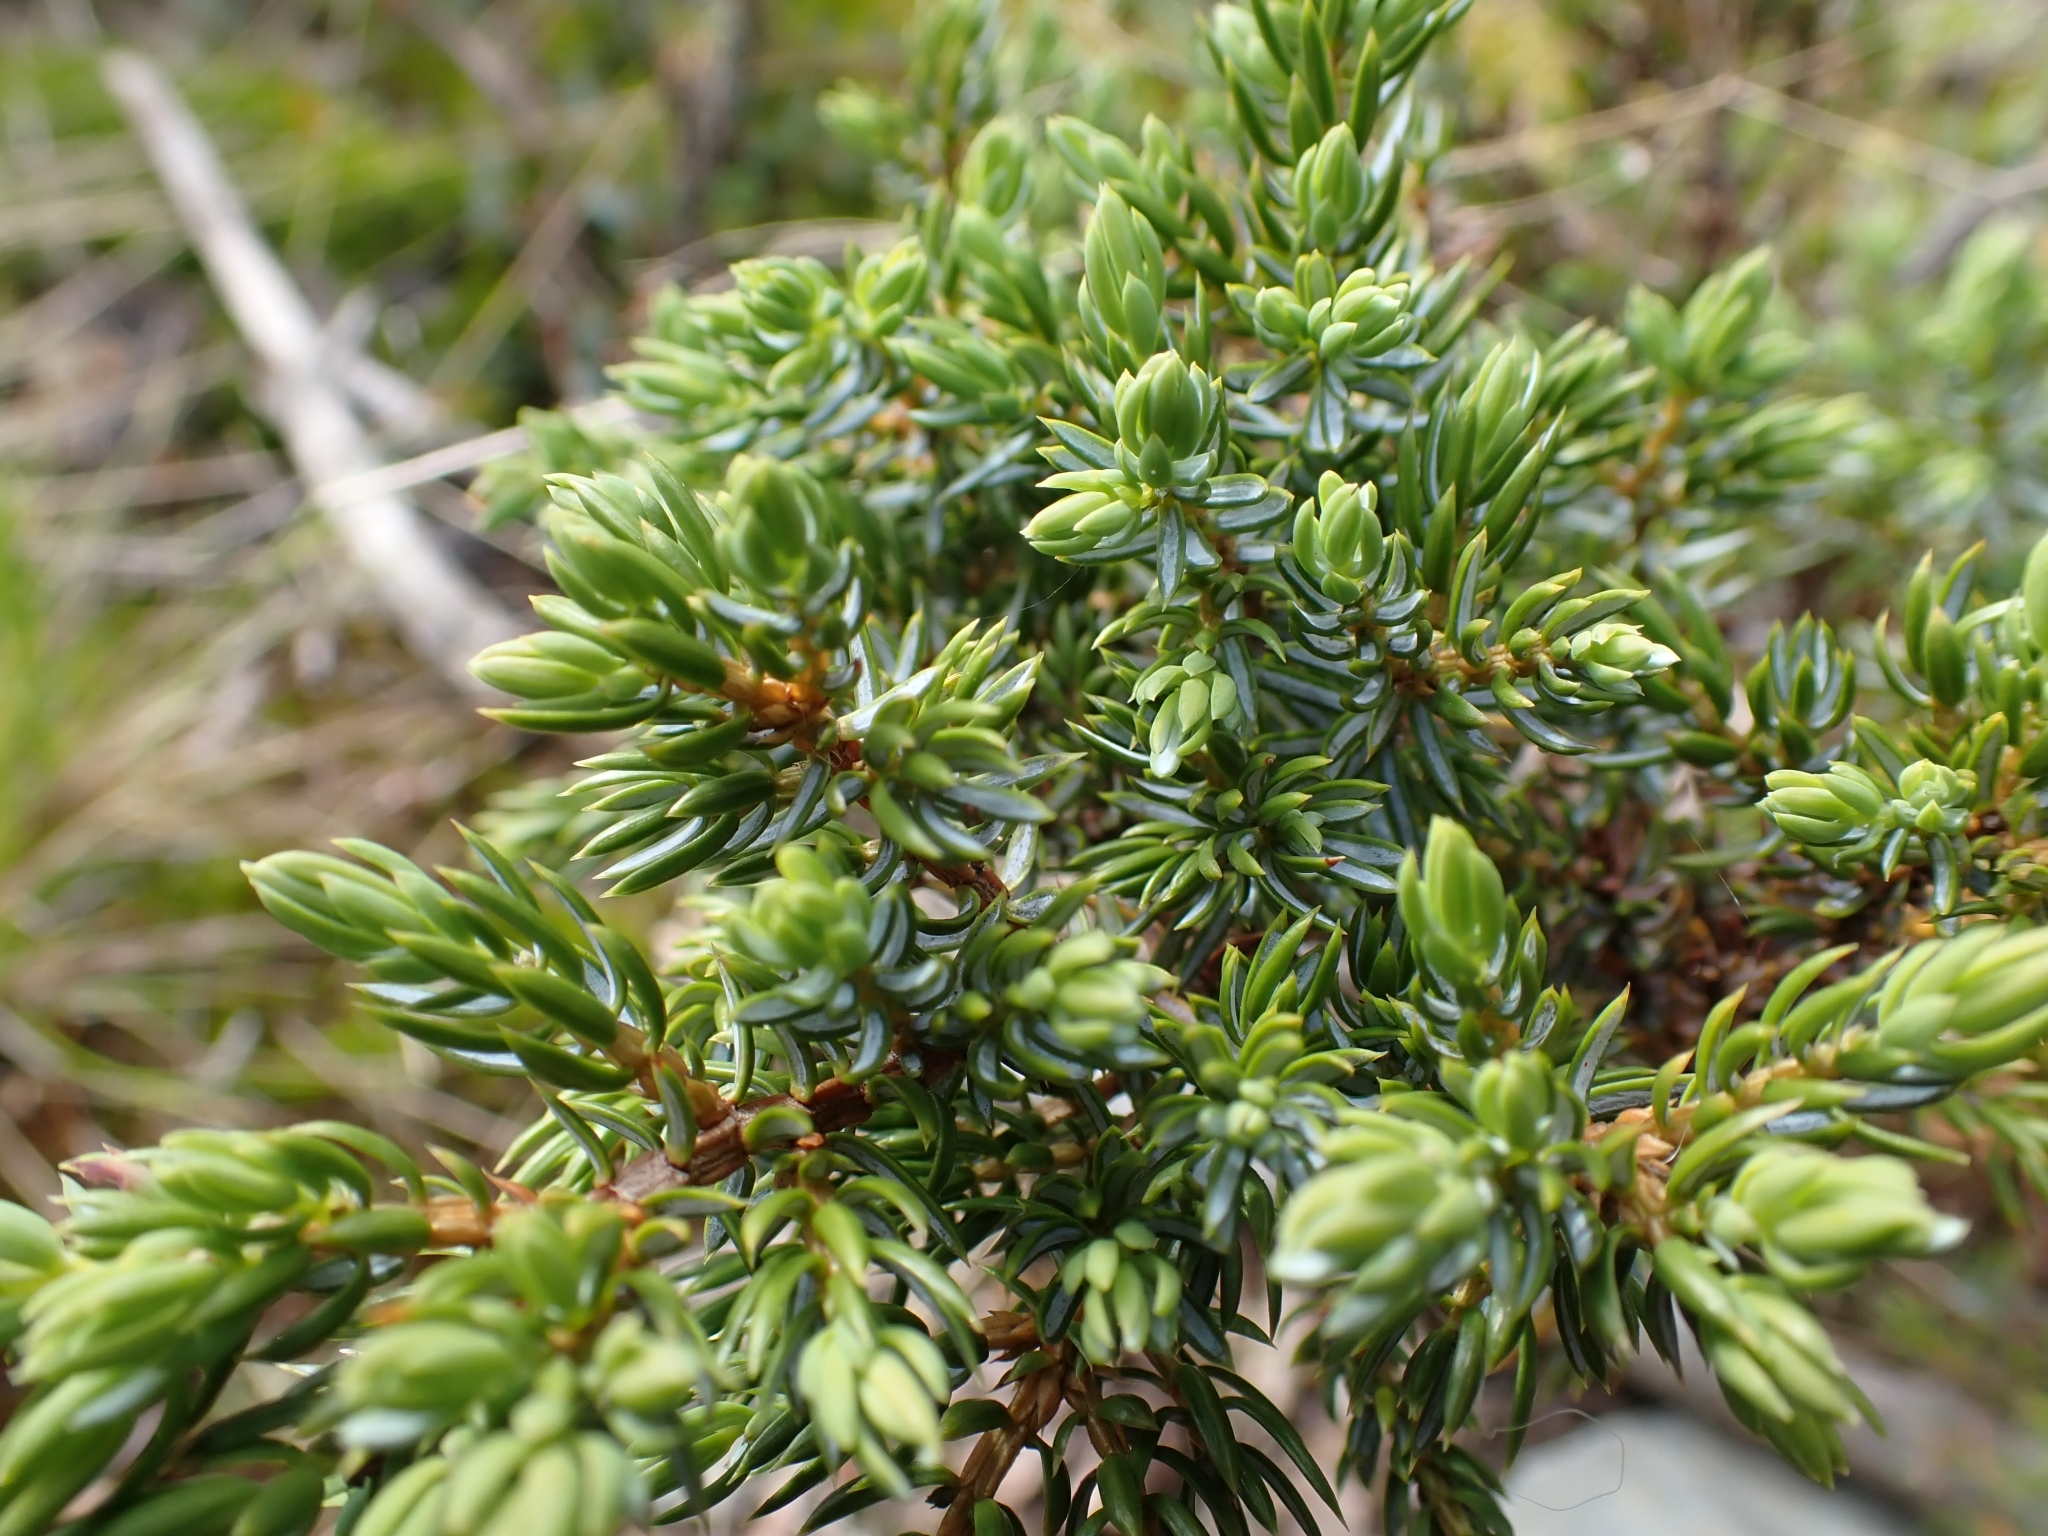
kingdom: Plantae
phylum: Tracheophyta
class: Pinopsida
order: Pinales
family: Cupressaceae
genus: Juniperus
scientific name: Juniperus communis
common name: Common juniper
